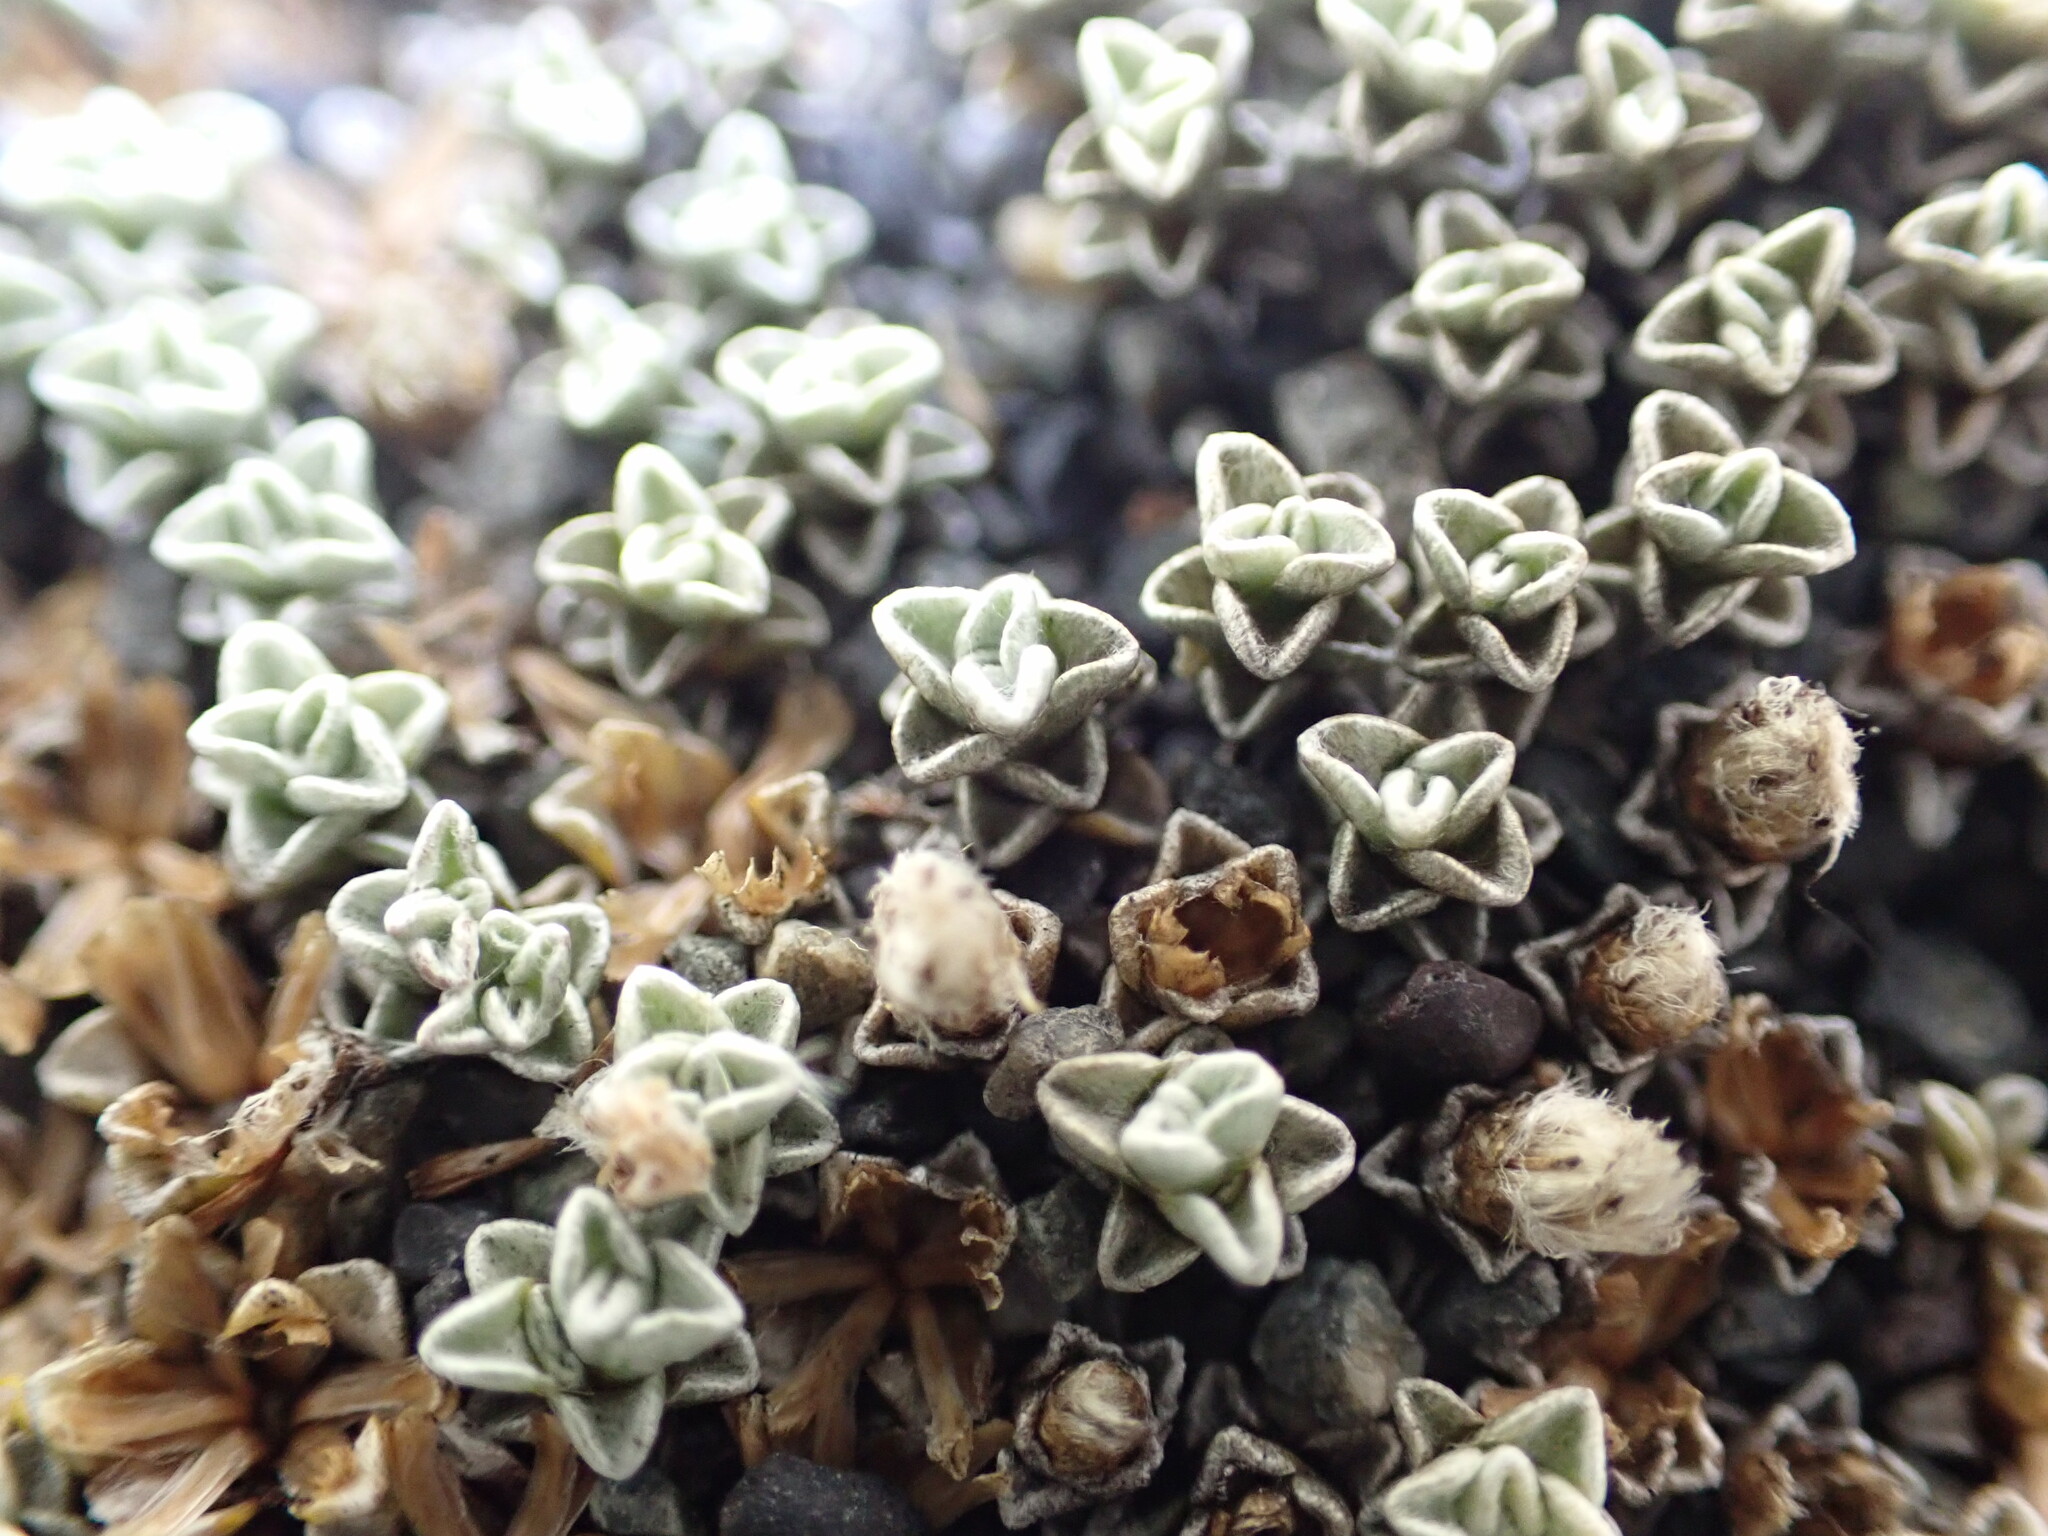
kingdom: Plantae
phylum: Tracheophyta
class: Magnoliopsida
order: Asterales
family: Asteraceae
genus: Raoulia
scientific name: Raoulia hookeri
